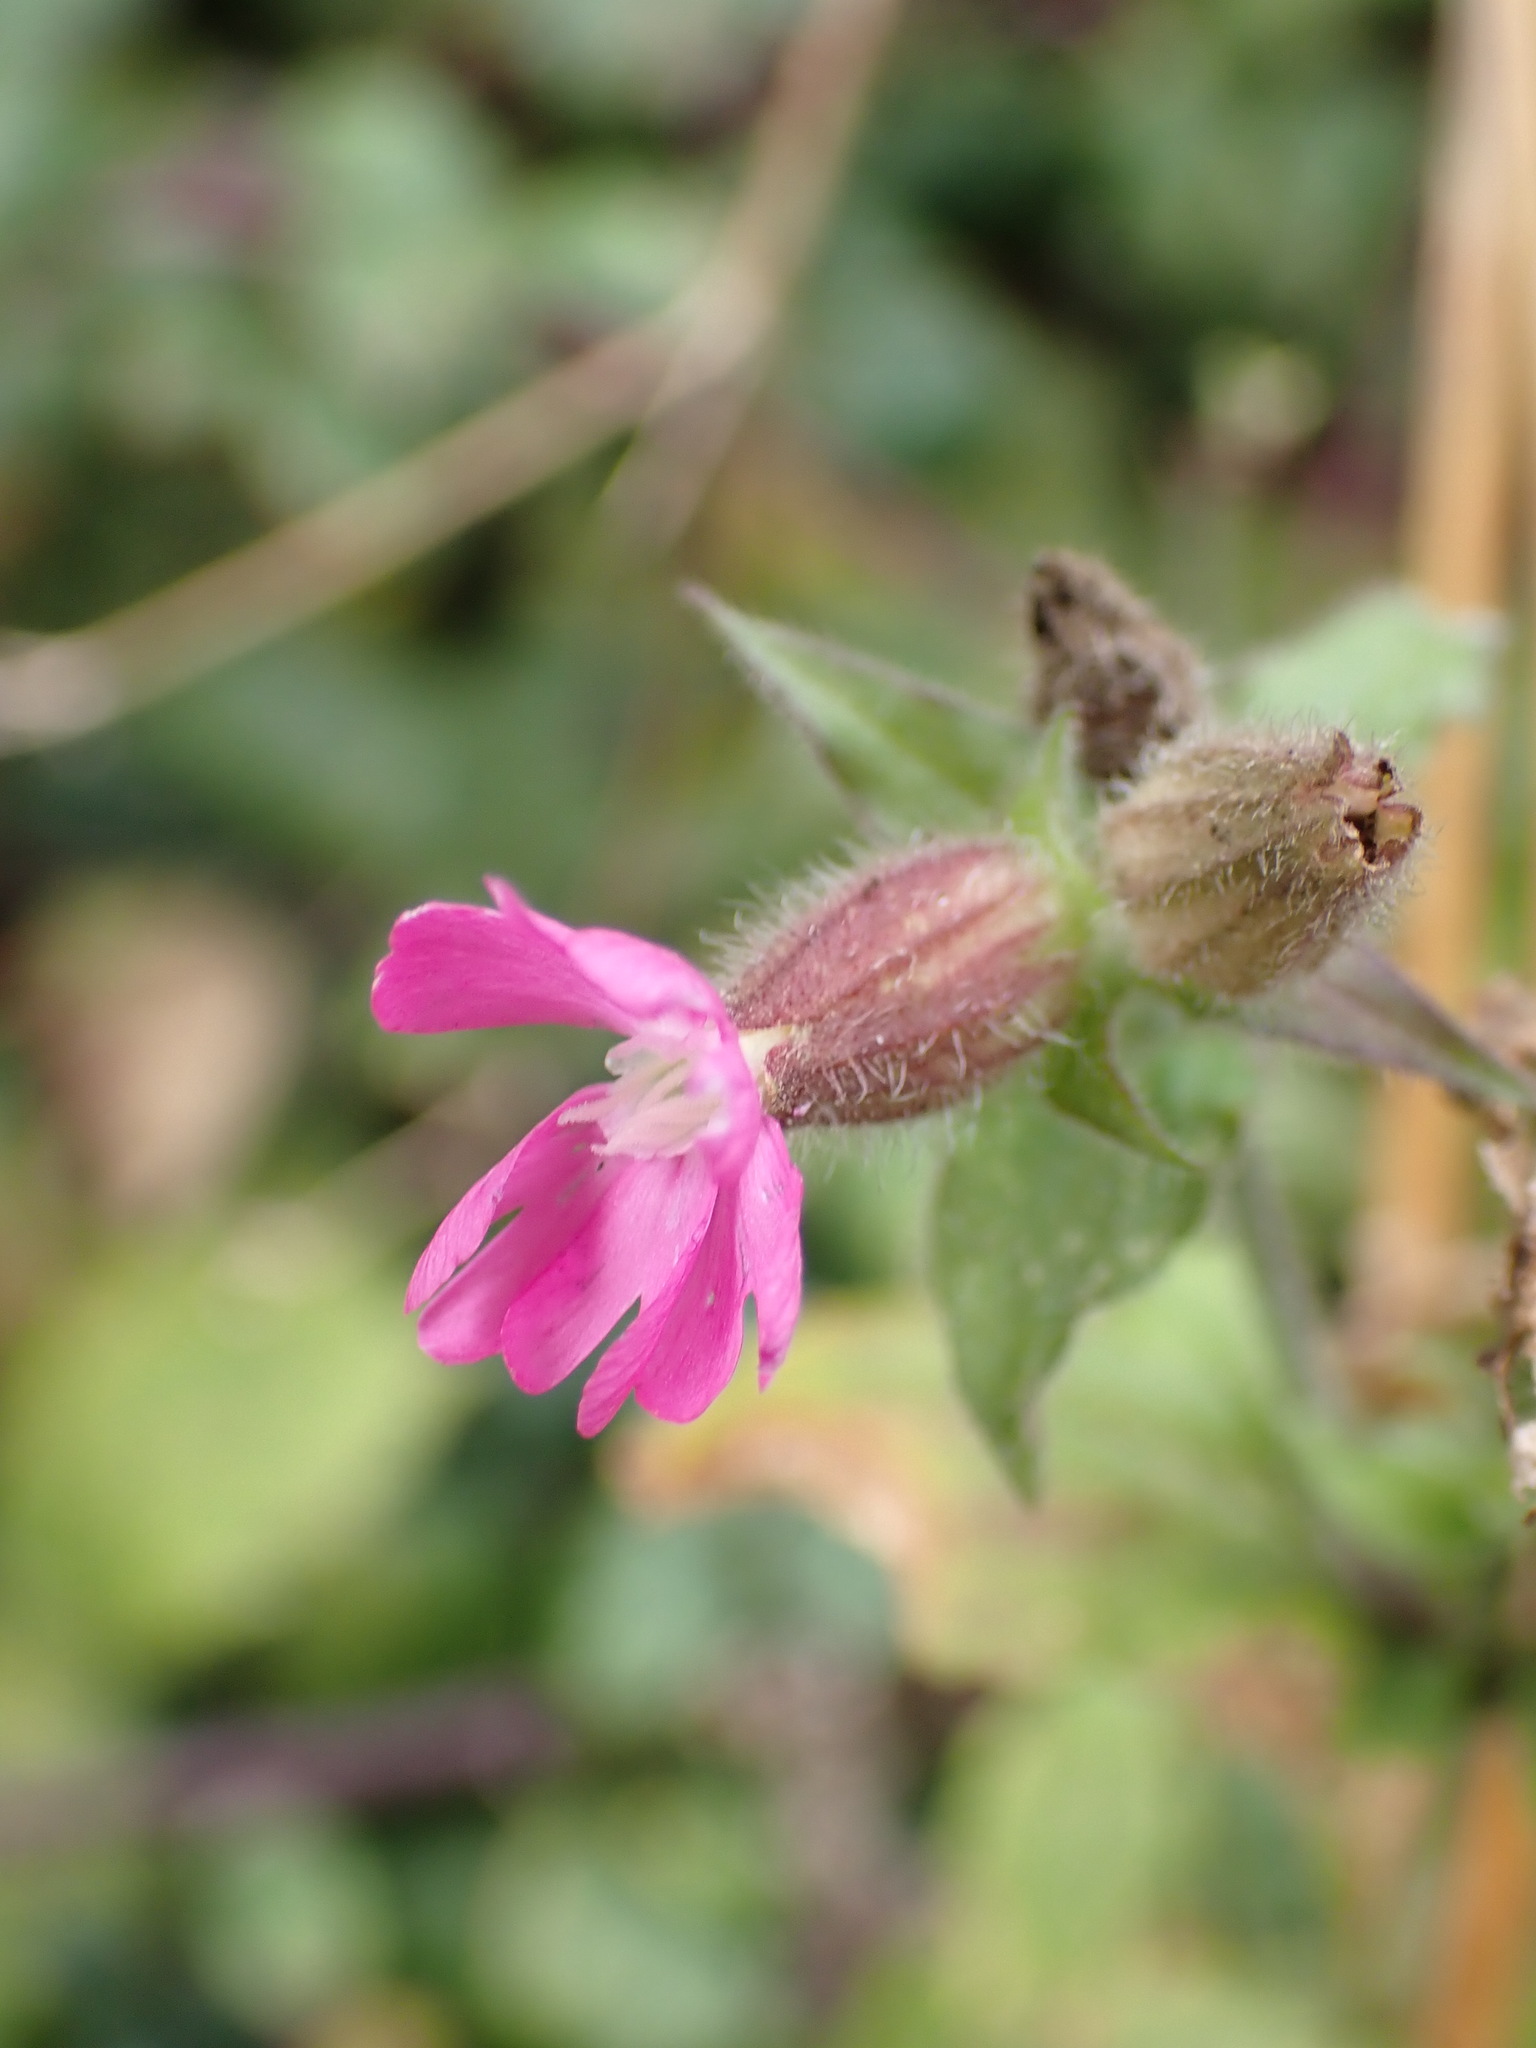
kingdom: Plantae
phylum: Tracheophyta
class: Magnoliopsida
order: Caryophyllales
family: Caryophyllaceae
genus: Silene
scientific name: Silene dioica
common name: Red campion
